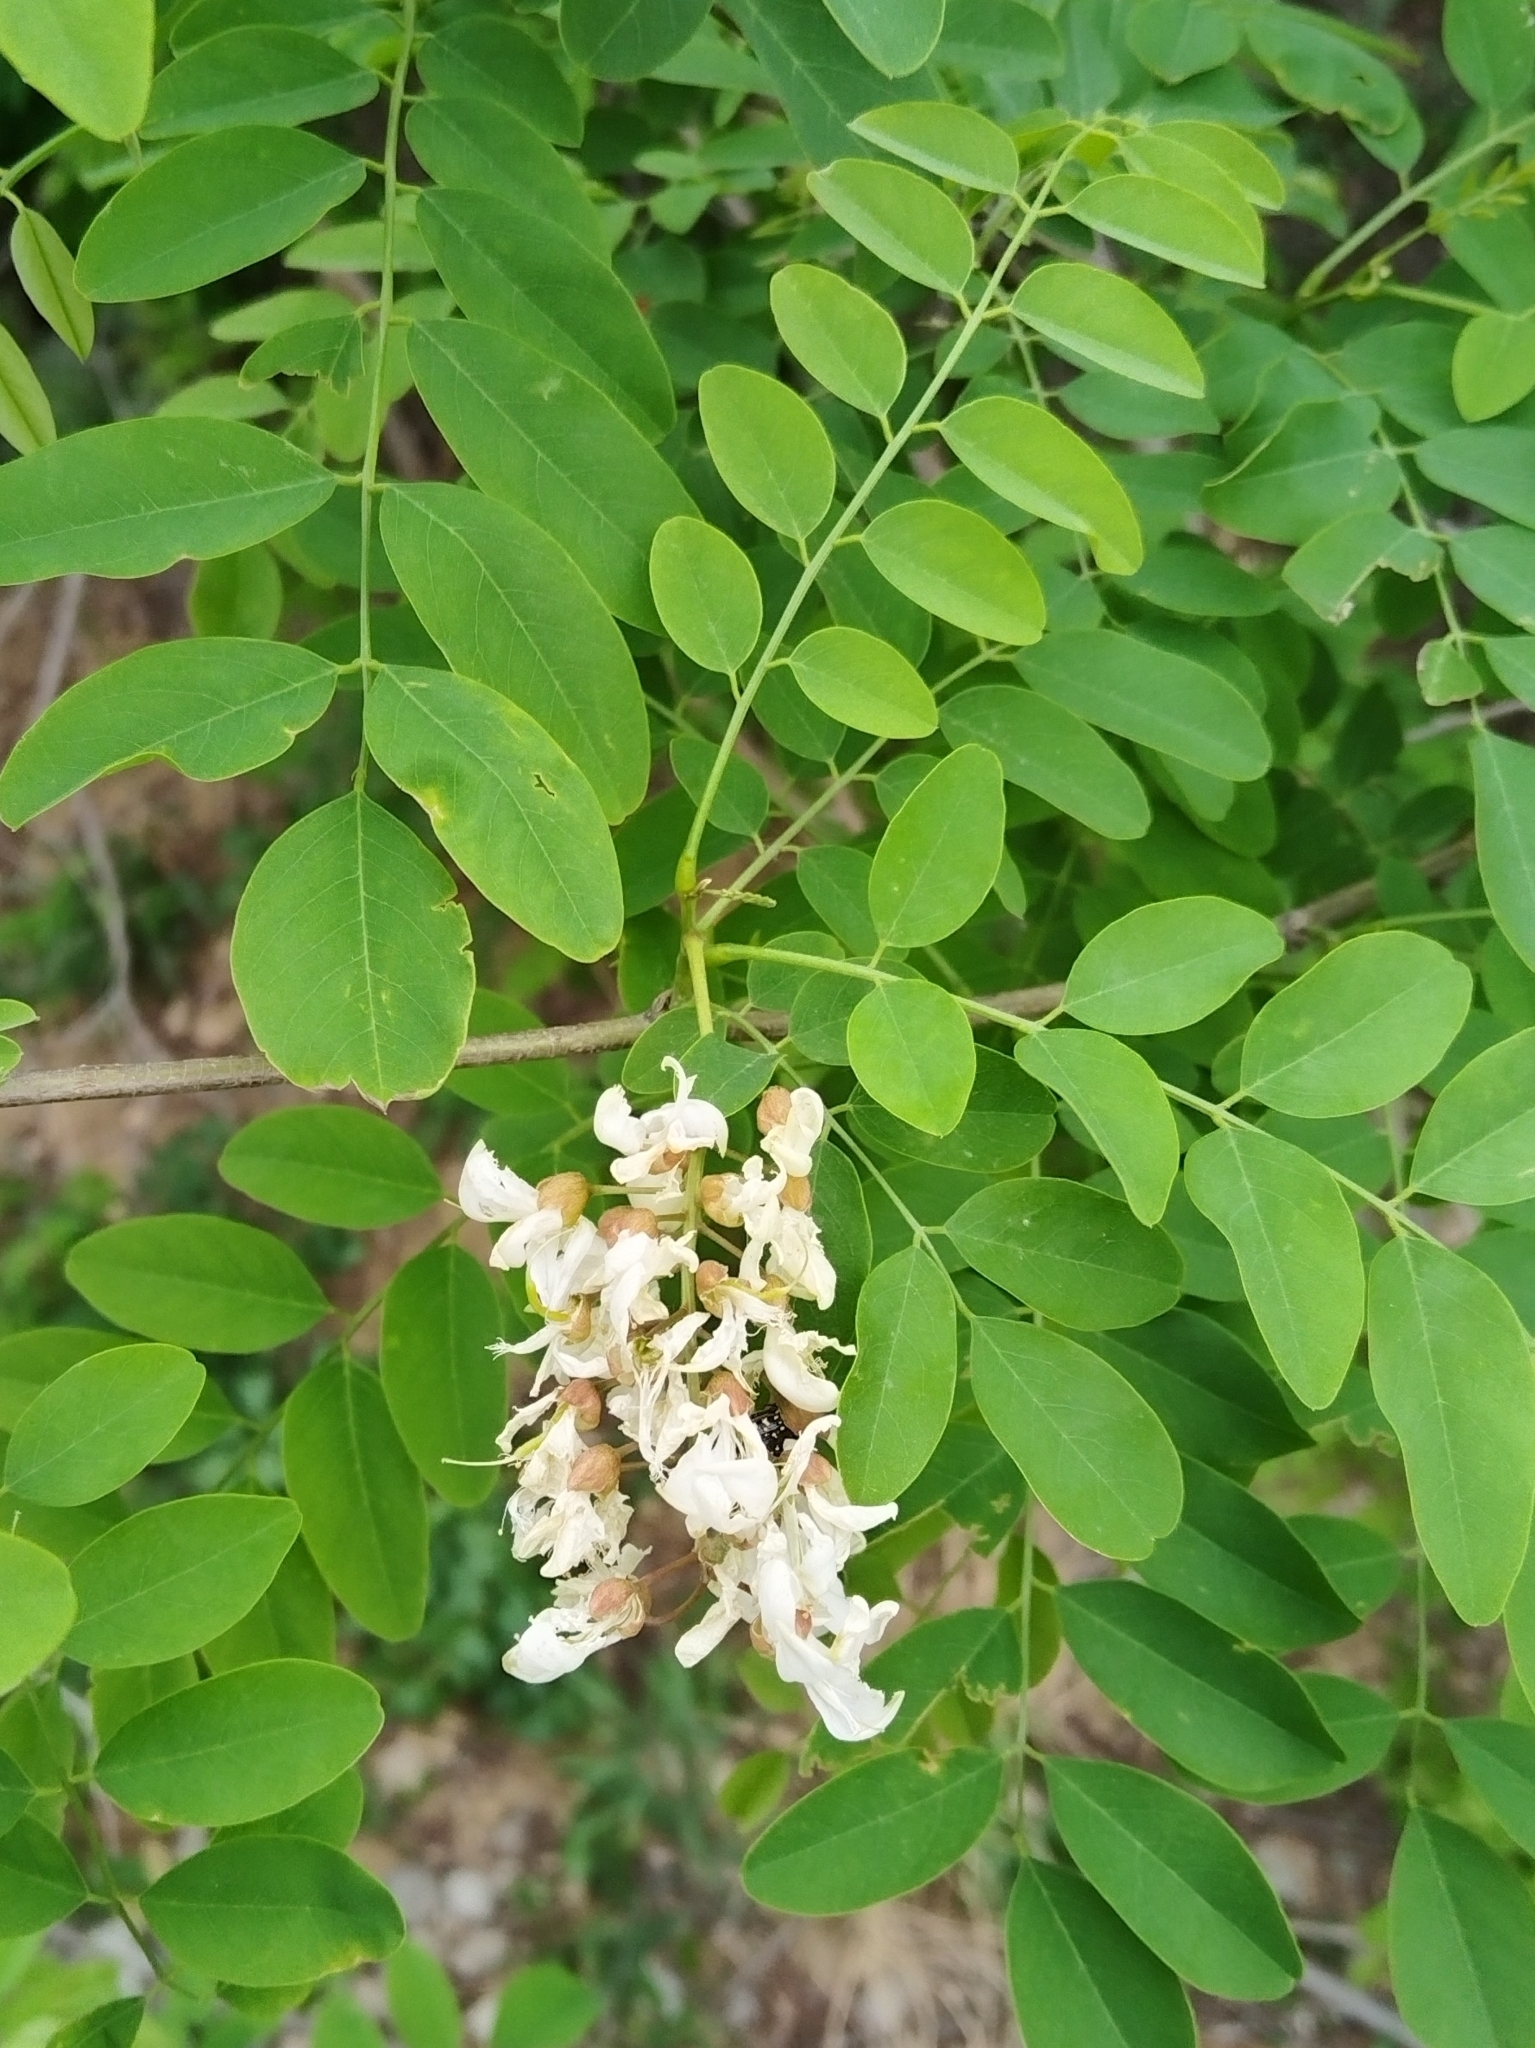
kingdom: Plantae
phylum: Tracheophyta
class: Magnoliopsida
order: Fabales
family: Fabaceae
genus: Robinia
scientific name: Robinia pseudoacacia
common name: Black locust
